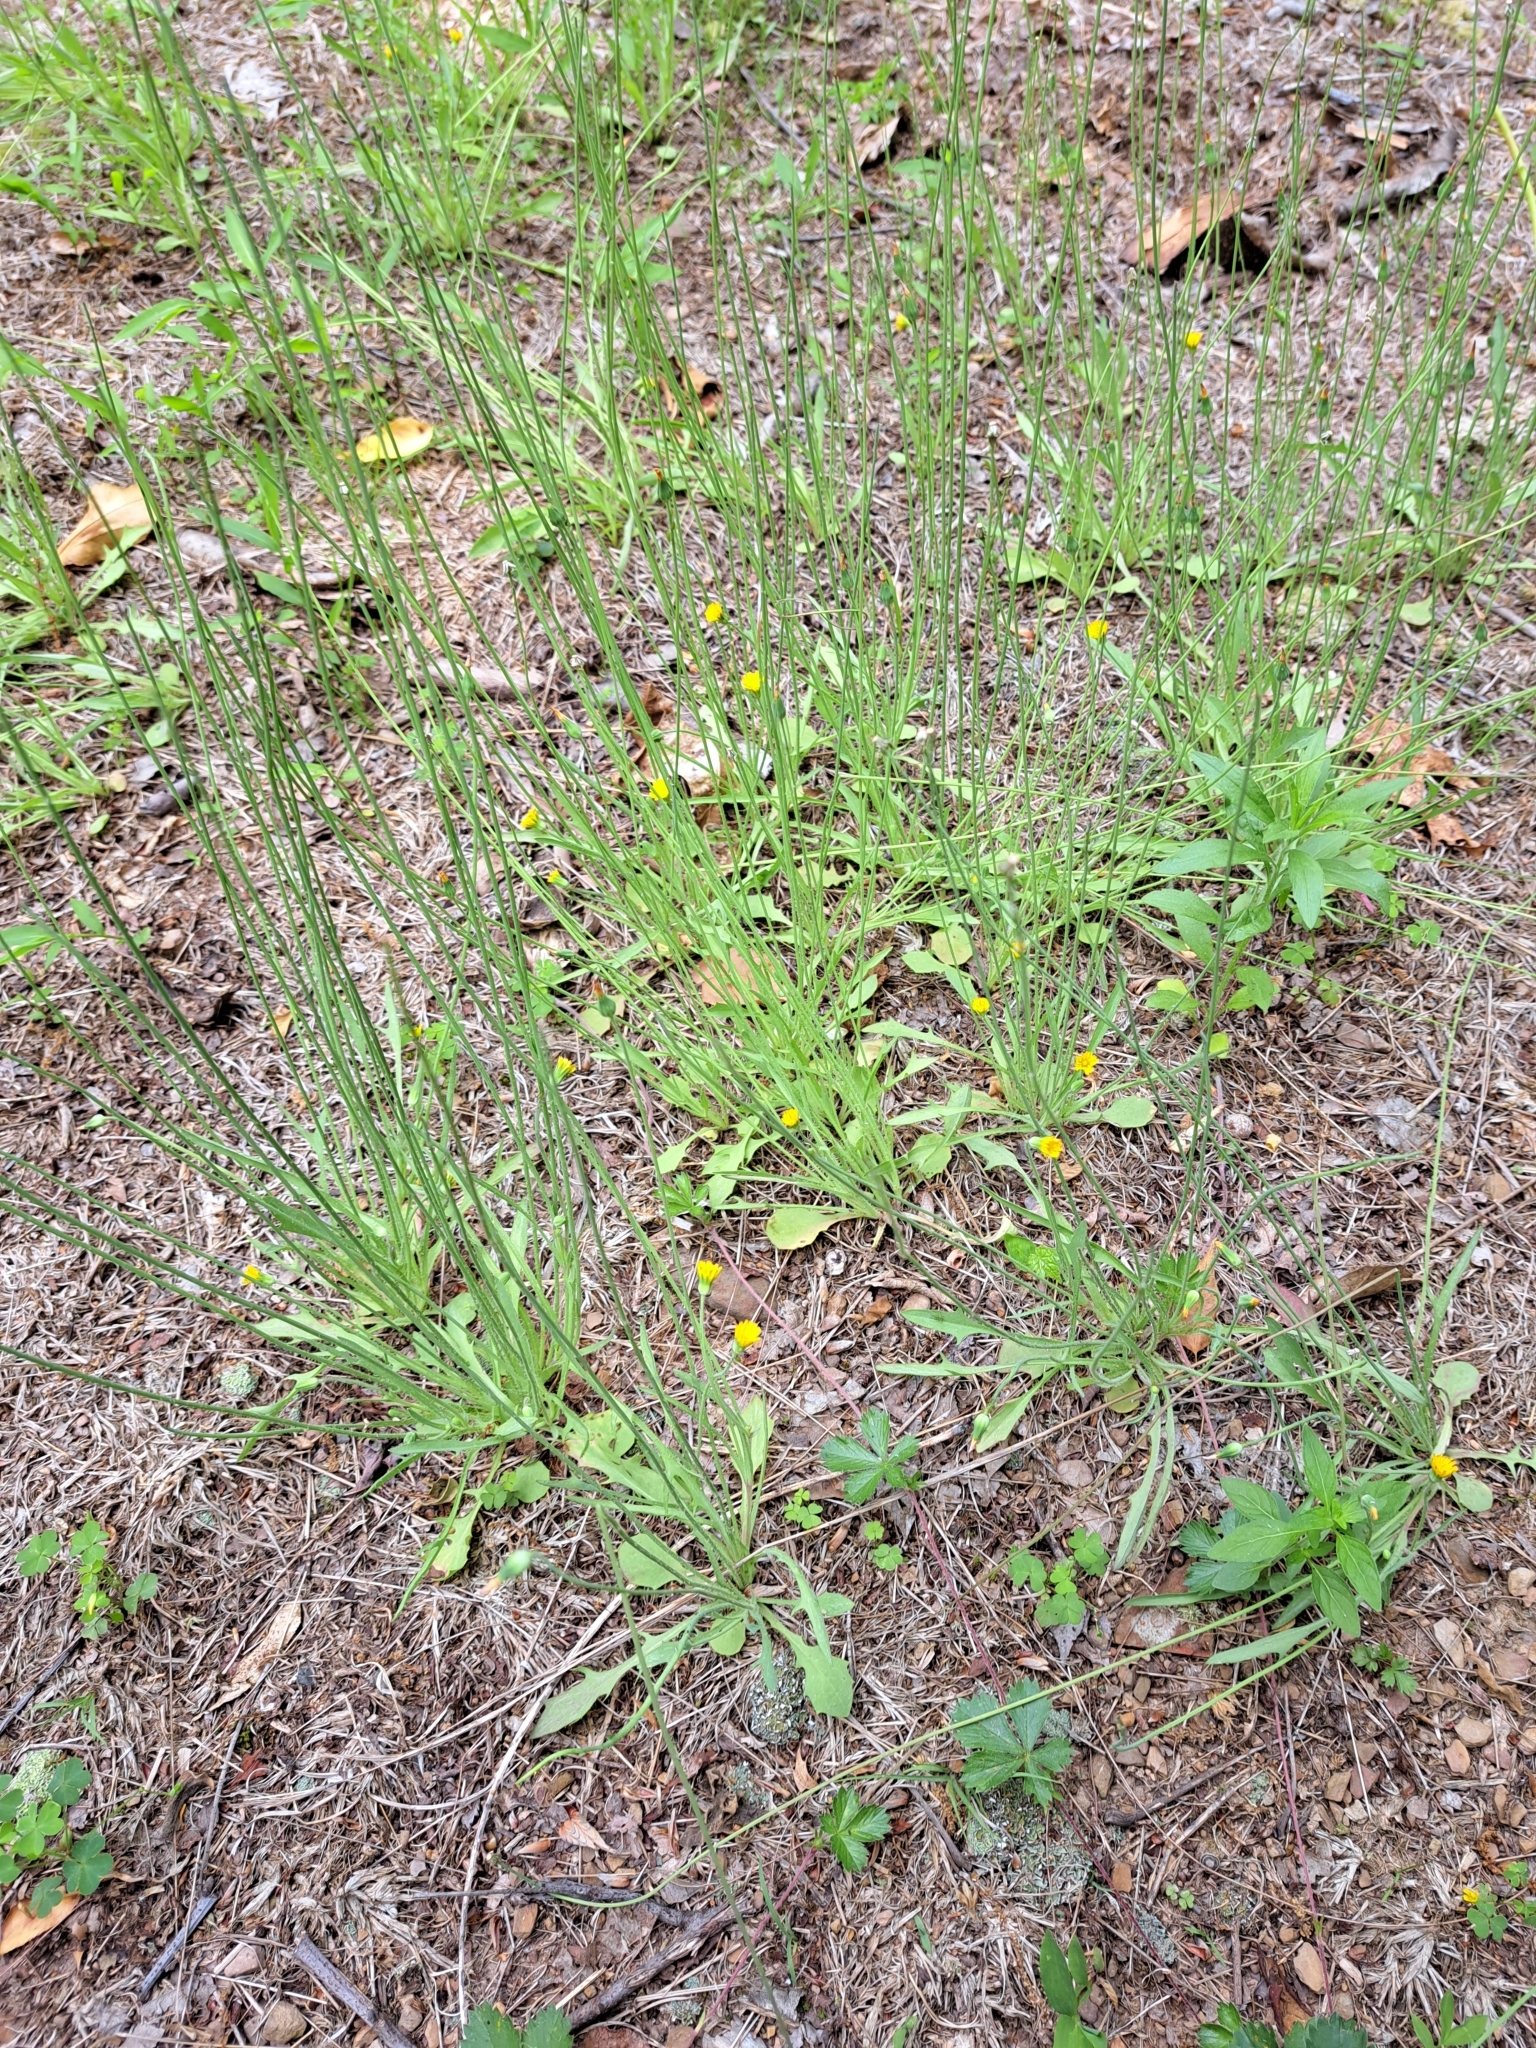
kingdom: Plantae
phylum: Tracheophyta
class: Magnoliopsida
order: Asterales
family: Asteraceae
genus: Krigia
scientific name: Krigia virginica
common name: Virginia dwarf-dandelion
